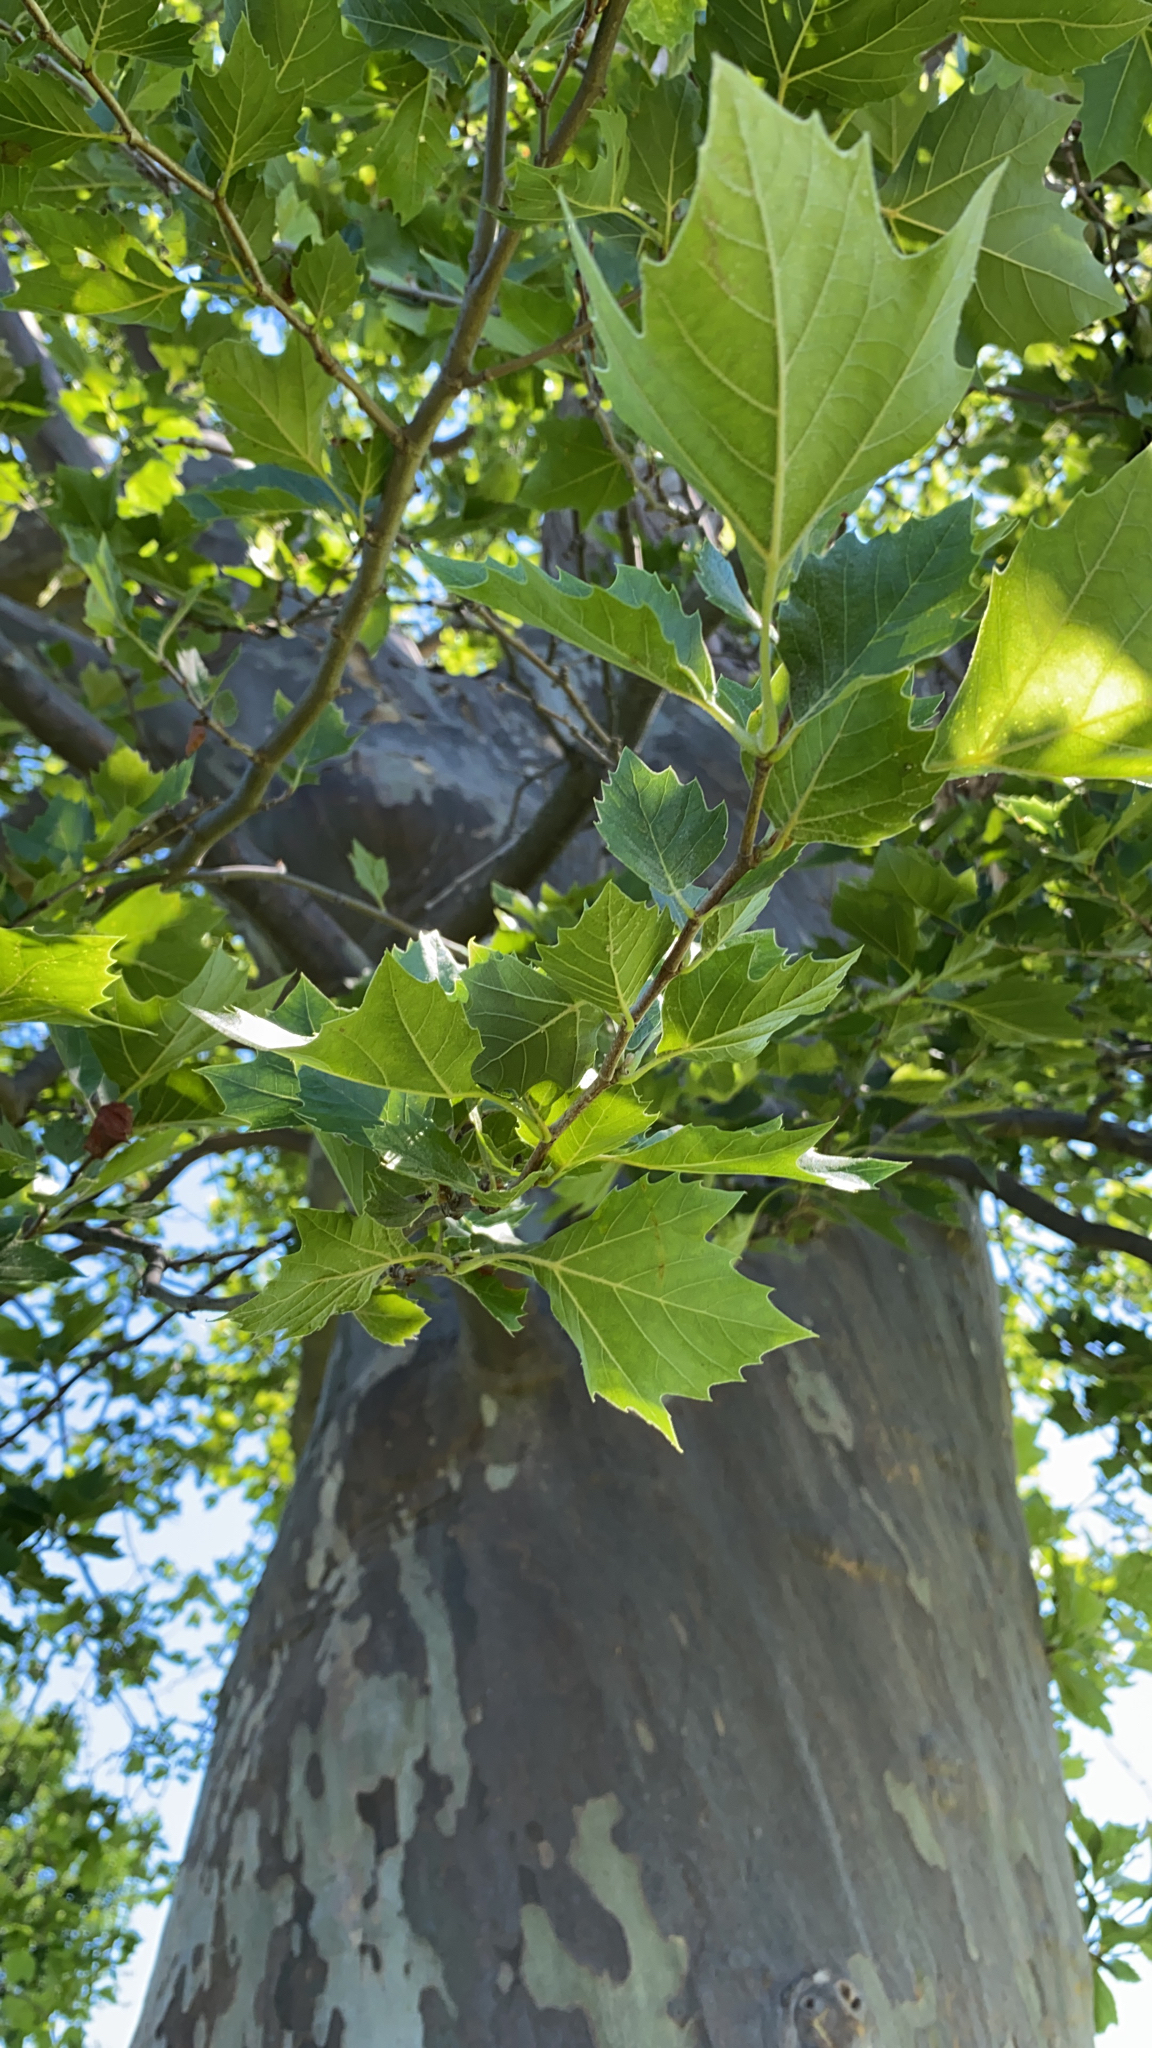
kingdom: Plantae
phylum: Tracheophyta
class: Magnoliopsida
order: Proteales
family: Platanaceae
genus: Platanus
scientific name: Platanus occidentalis
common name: American sycamore
